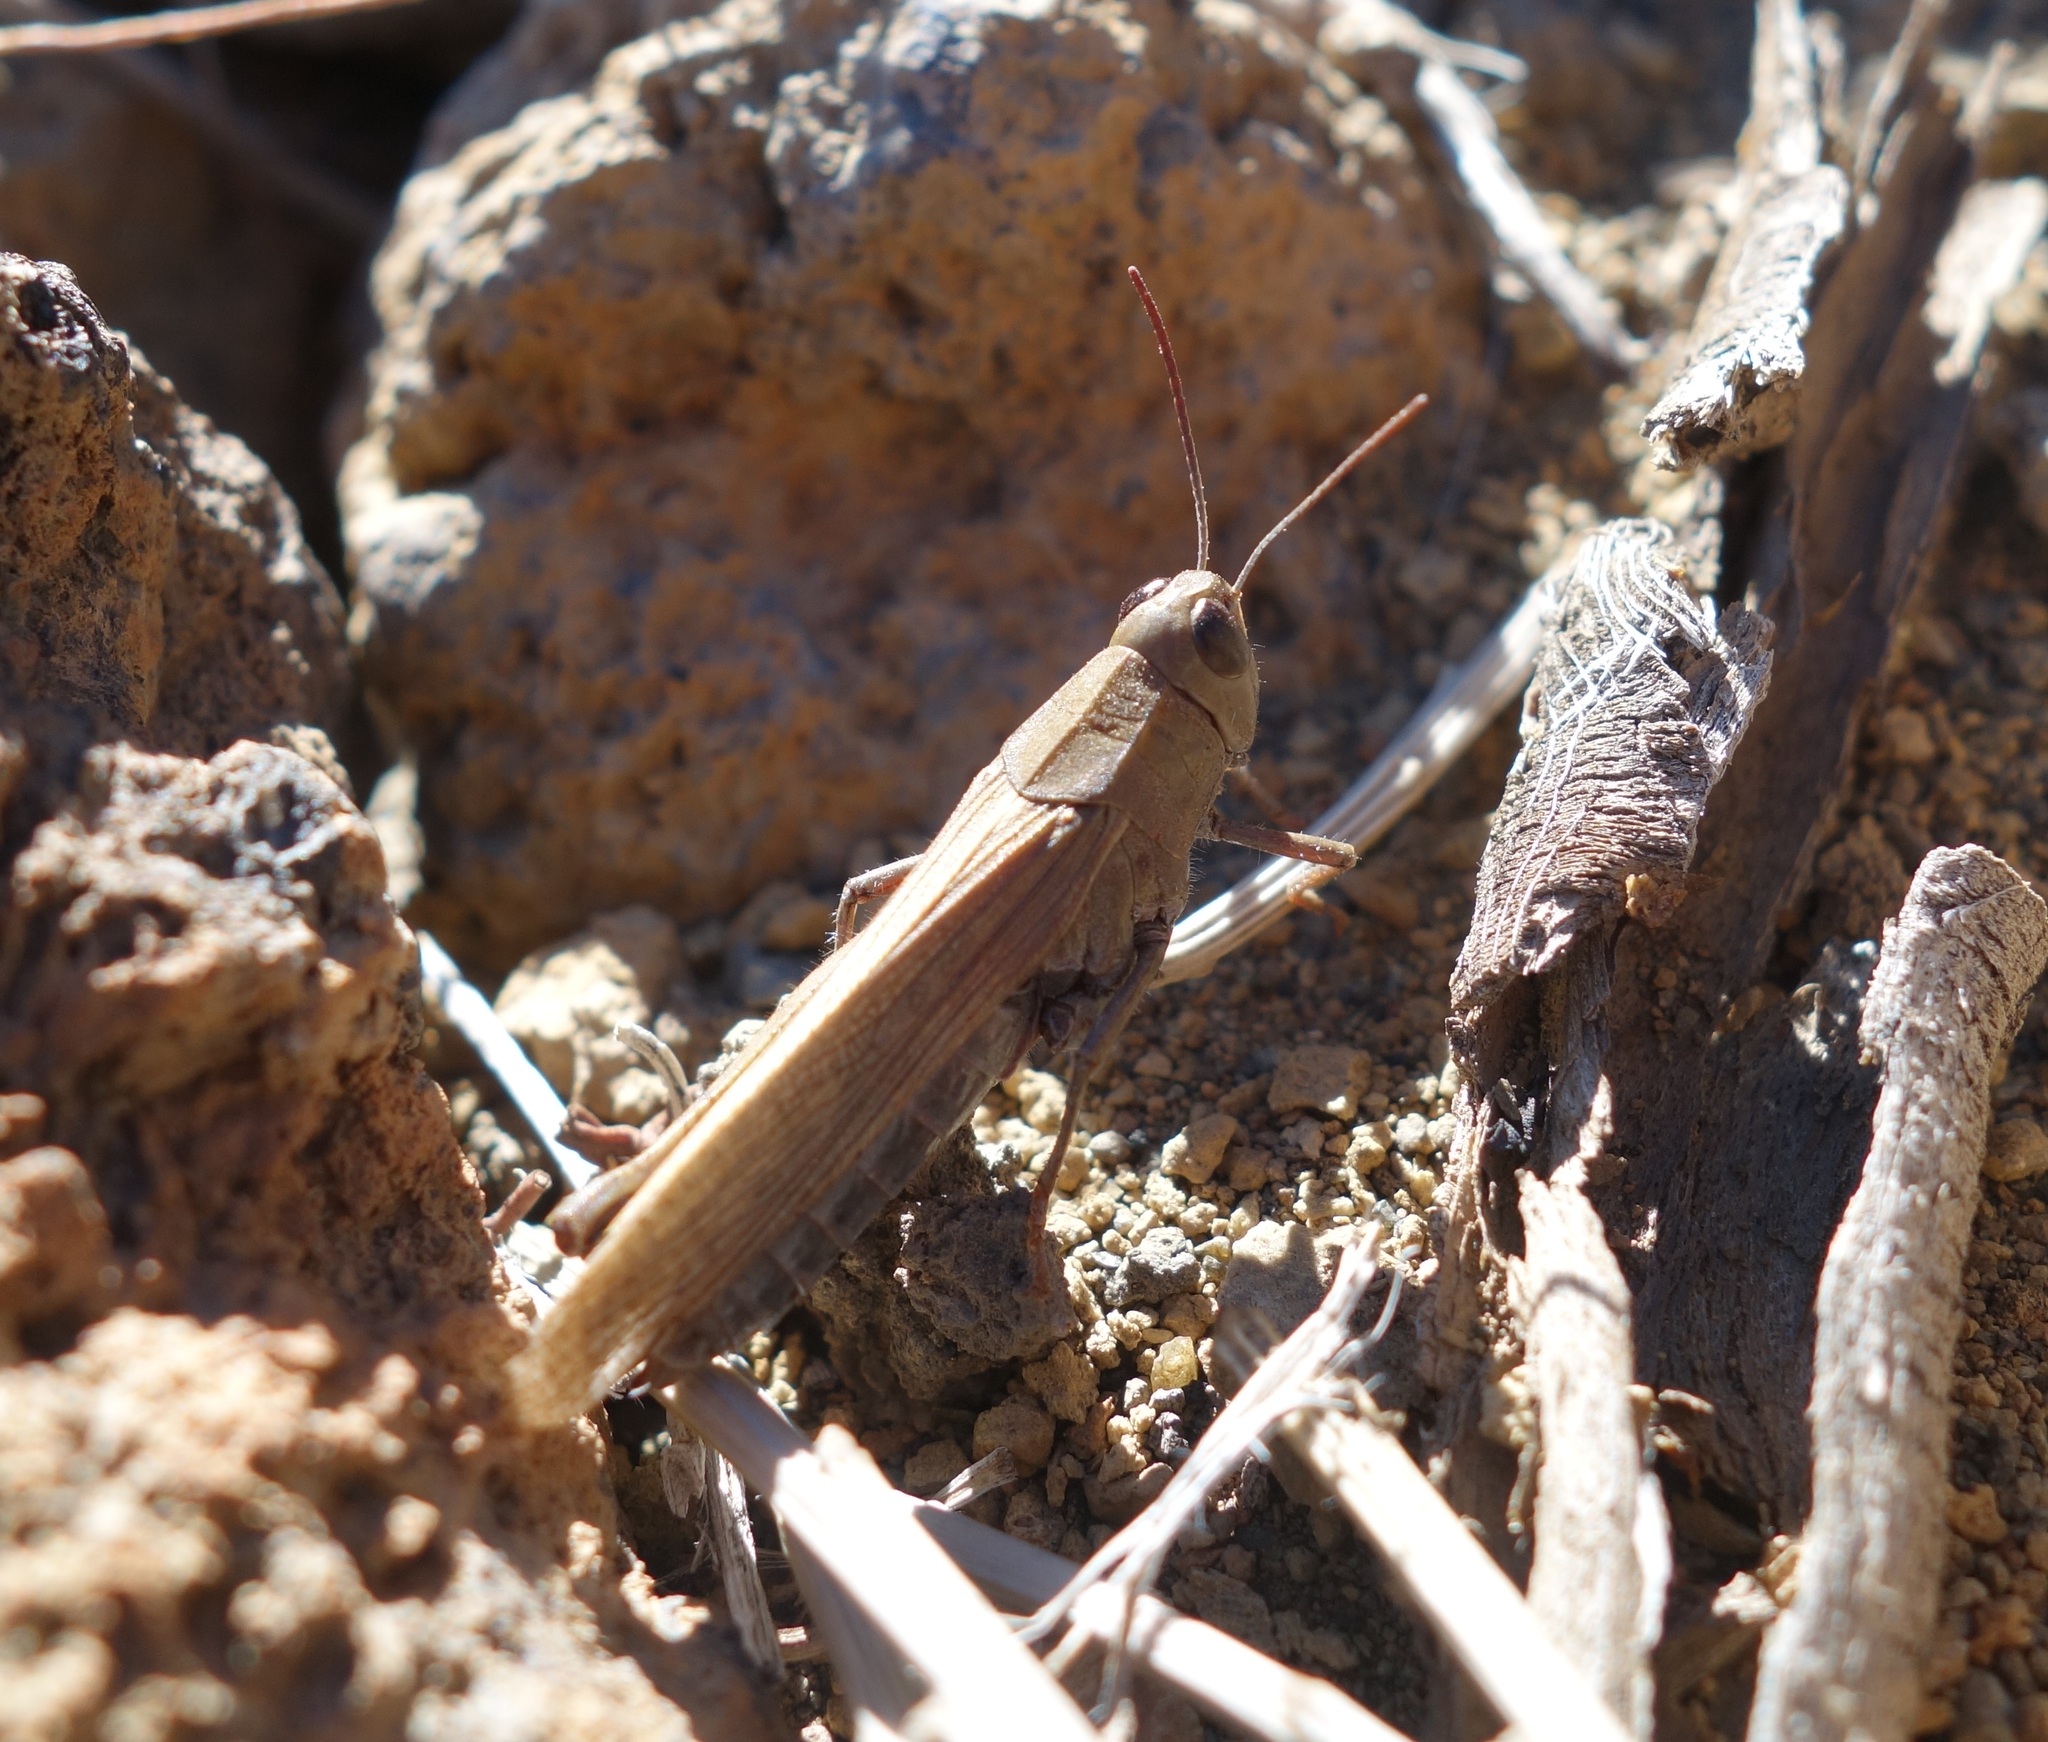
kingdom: Animalia
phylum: Arthropoda
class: Insecta
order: Orthoptera
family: Acrididae
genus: Calliptamus
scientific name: Calliptamus plebeius
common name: Canarian pincer grasshopper
